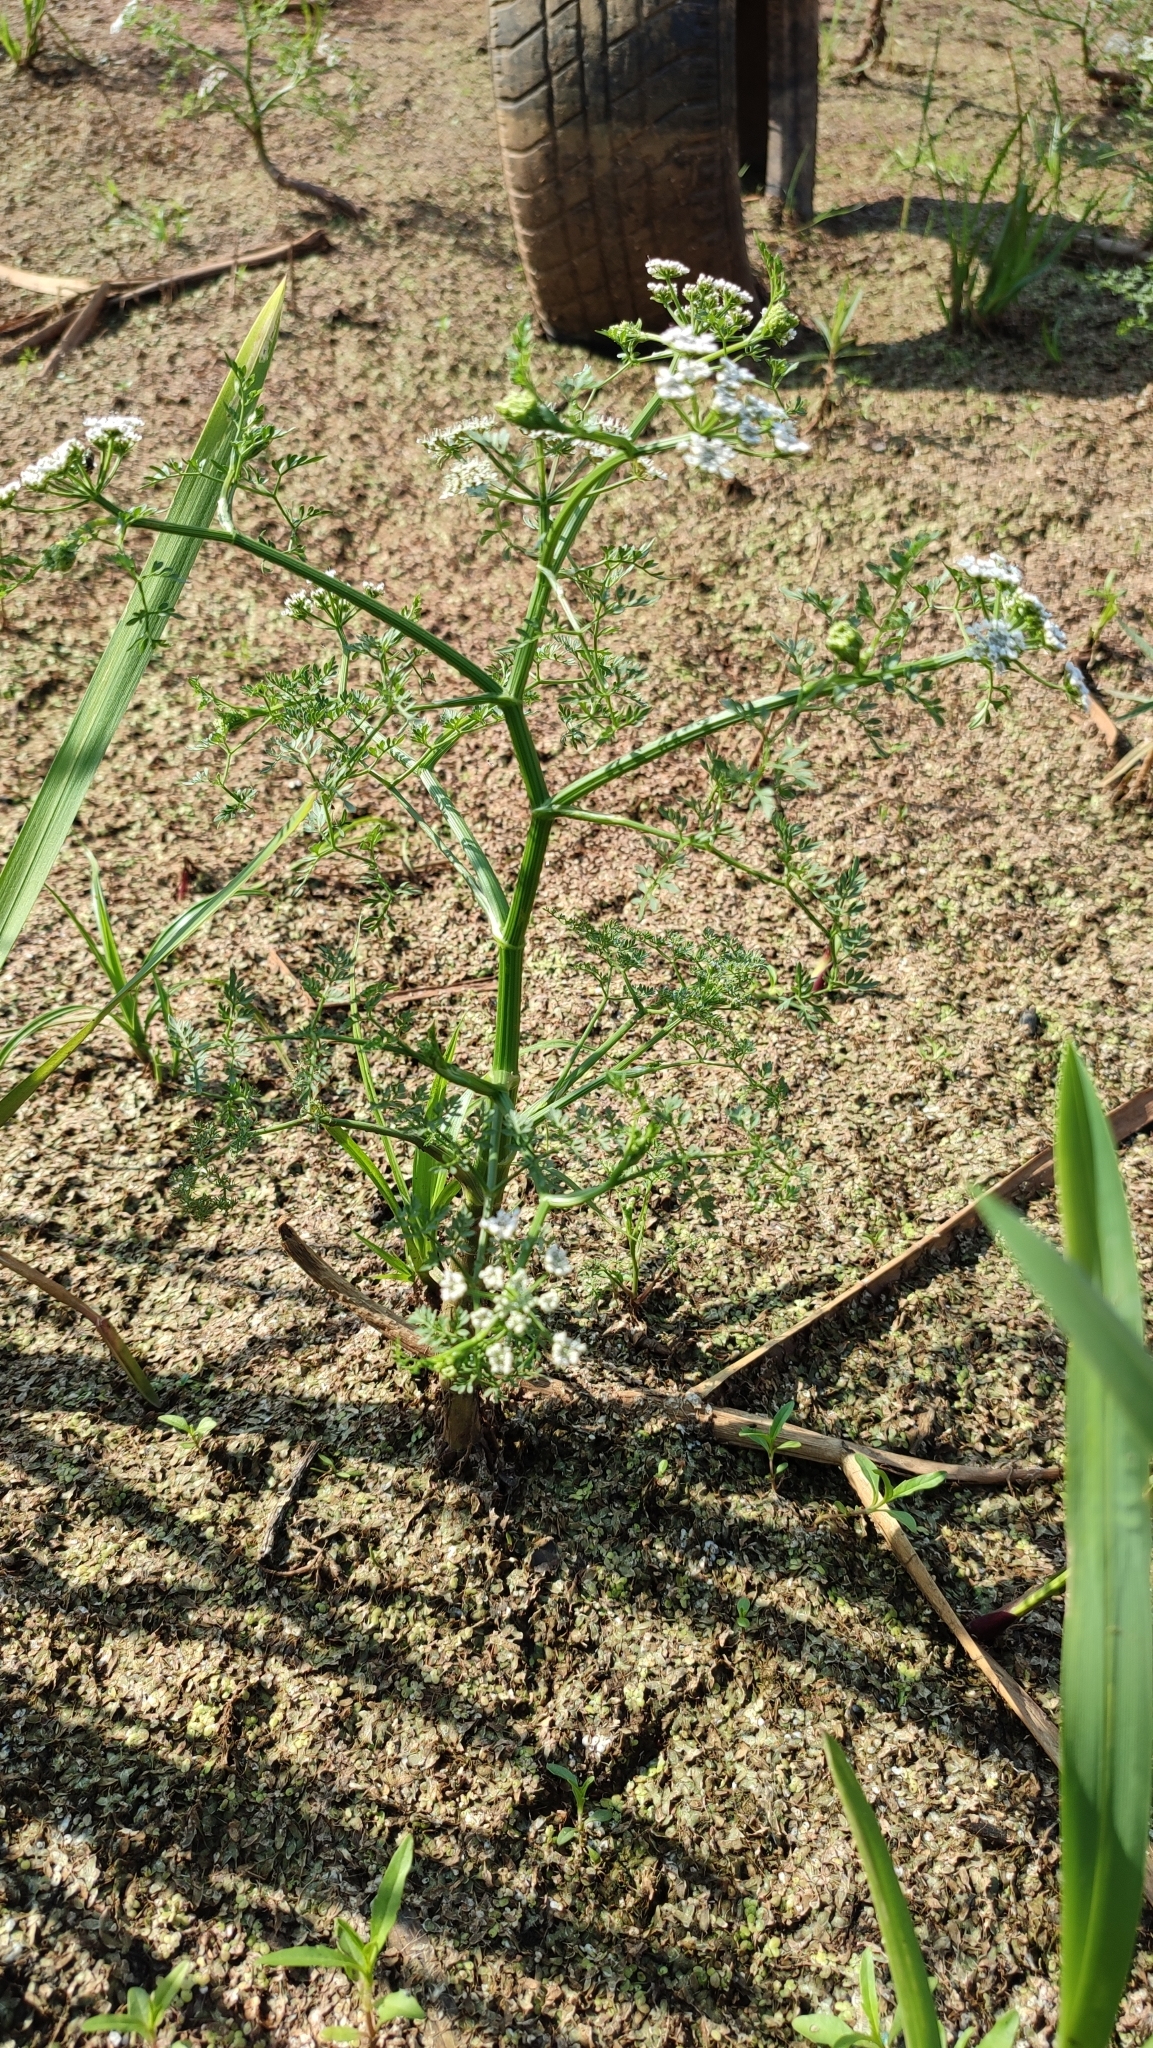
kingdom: Plantae
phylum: Tracheophyta
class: Magnoliopsida
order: Apiales
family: Apiaceae
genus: Oenanthe
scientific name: Oenanthe aquatica
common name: Fine-leaved water-dropwort
